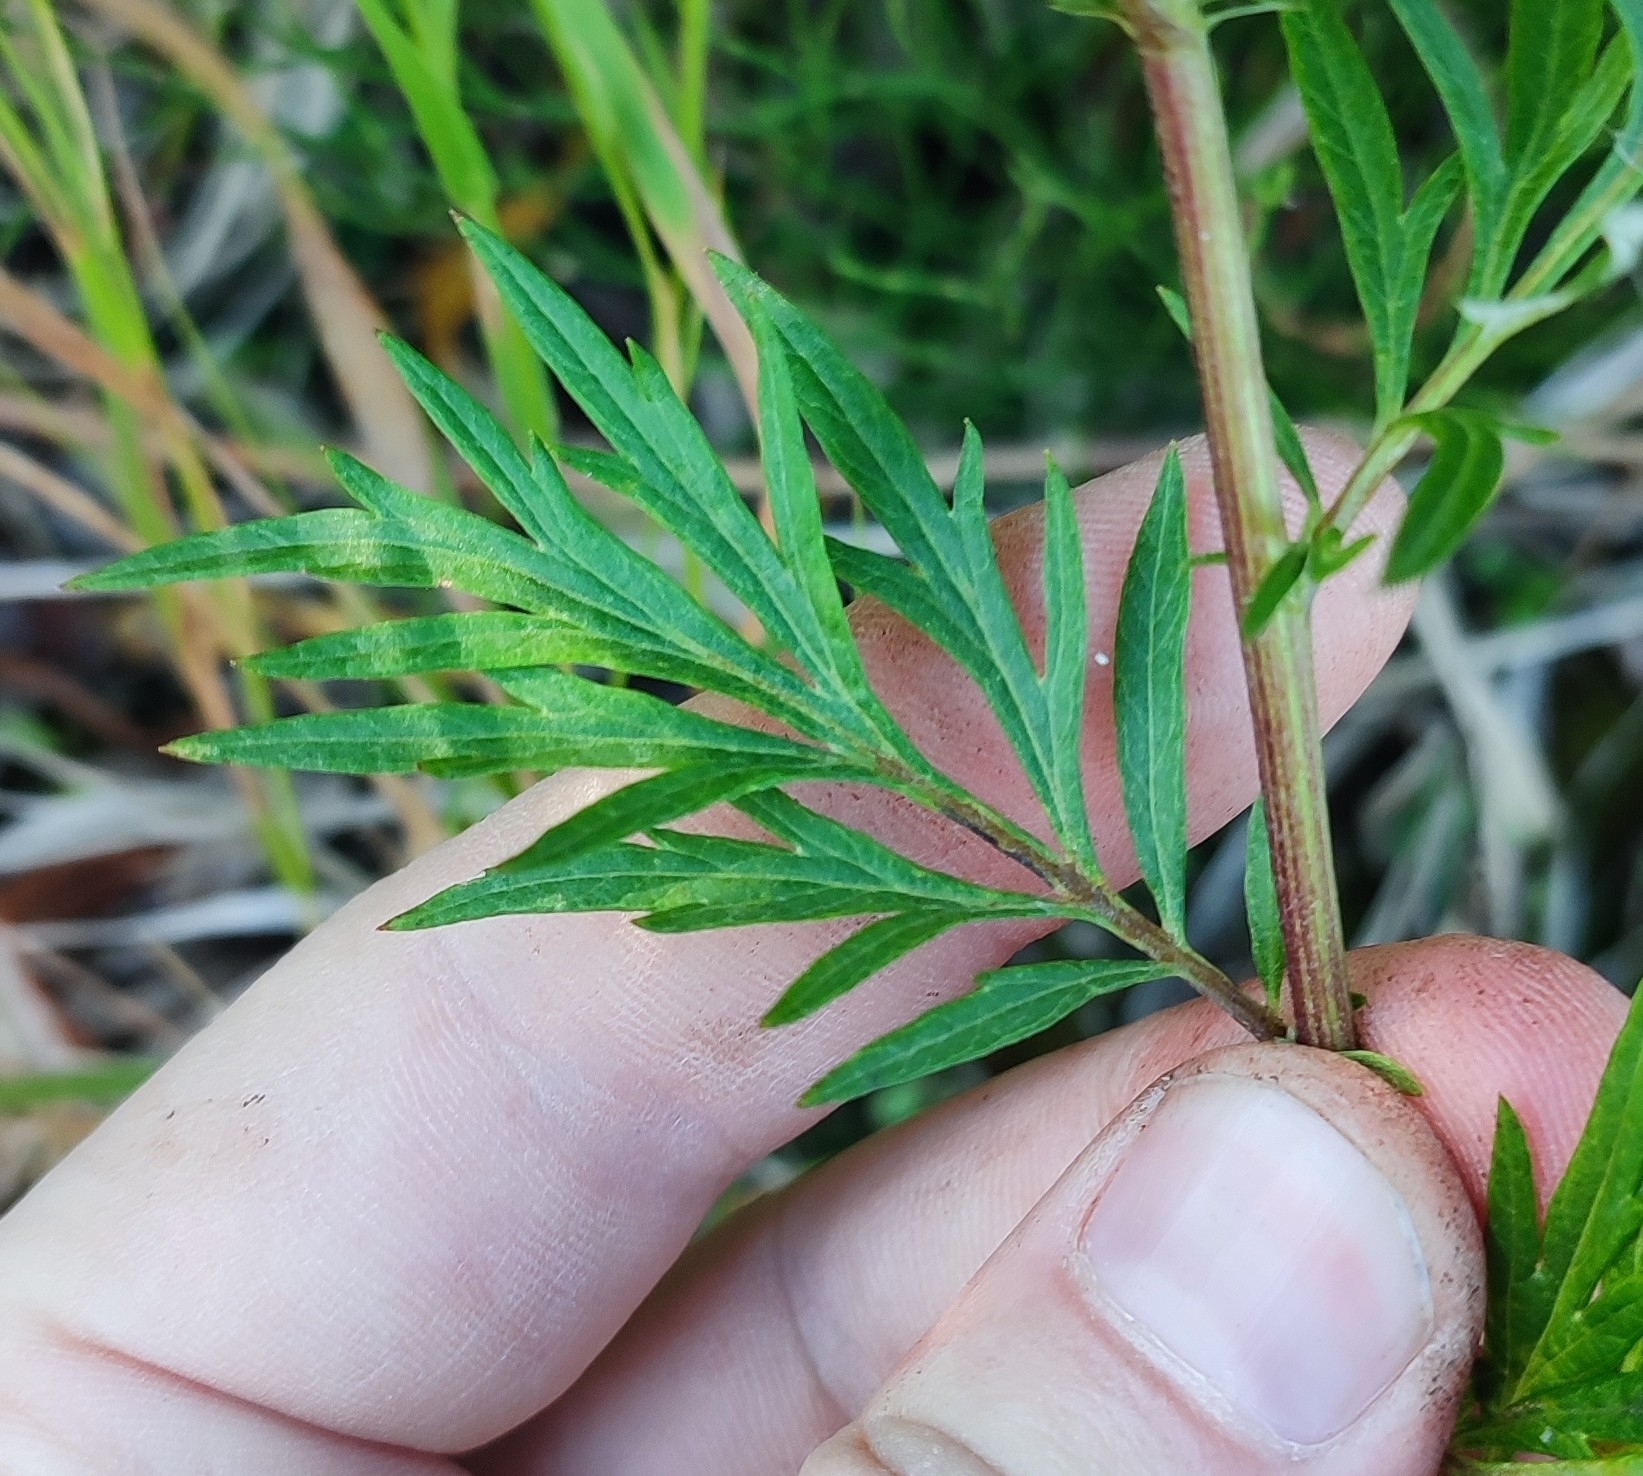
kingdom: Plantae
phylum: Tracheophyta
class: Magnoliopsida
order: Asterales
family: Asteraceae
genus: Artemisia
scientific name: Artemisia vulgaris
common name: Mugwort
